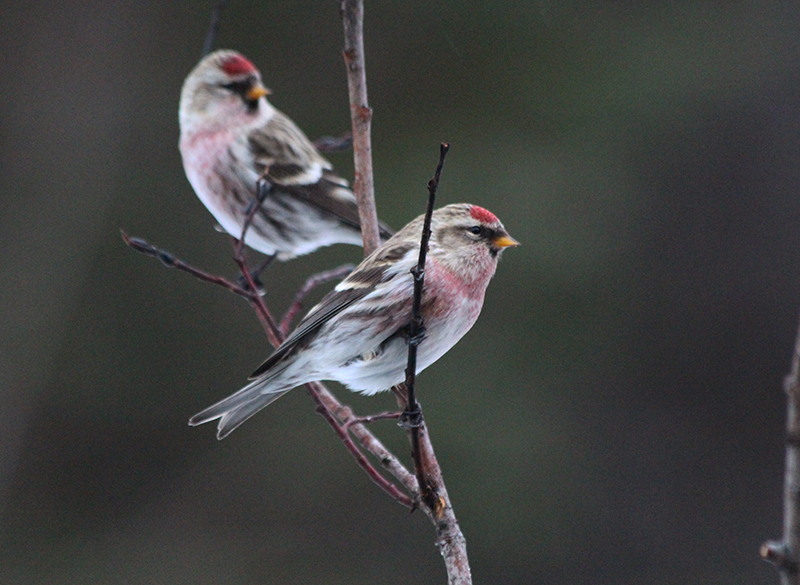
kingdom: Animalia
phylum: Chordata
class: Aves
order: Passeriformes
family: Fringillidae
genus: Acanthis
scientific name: Acanthis flammea
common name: Common redpoll
